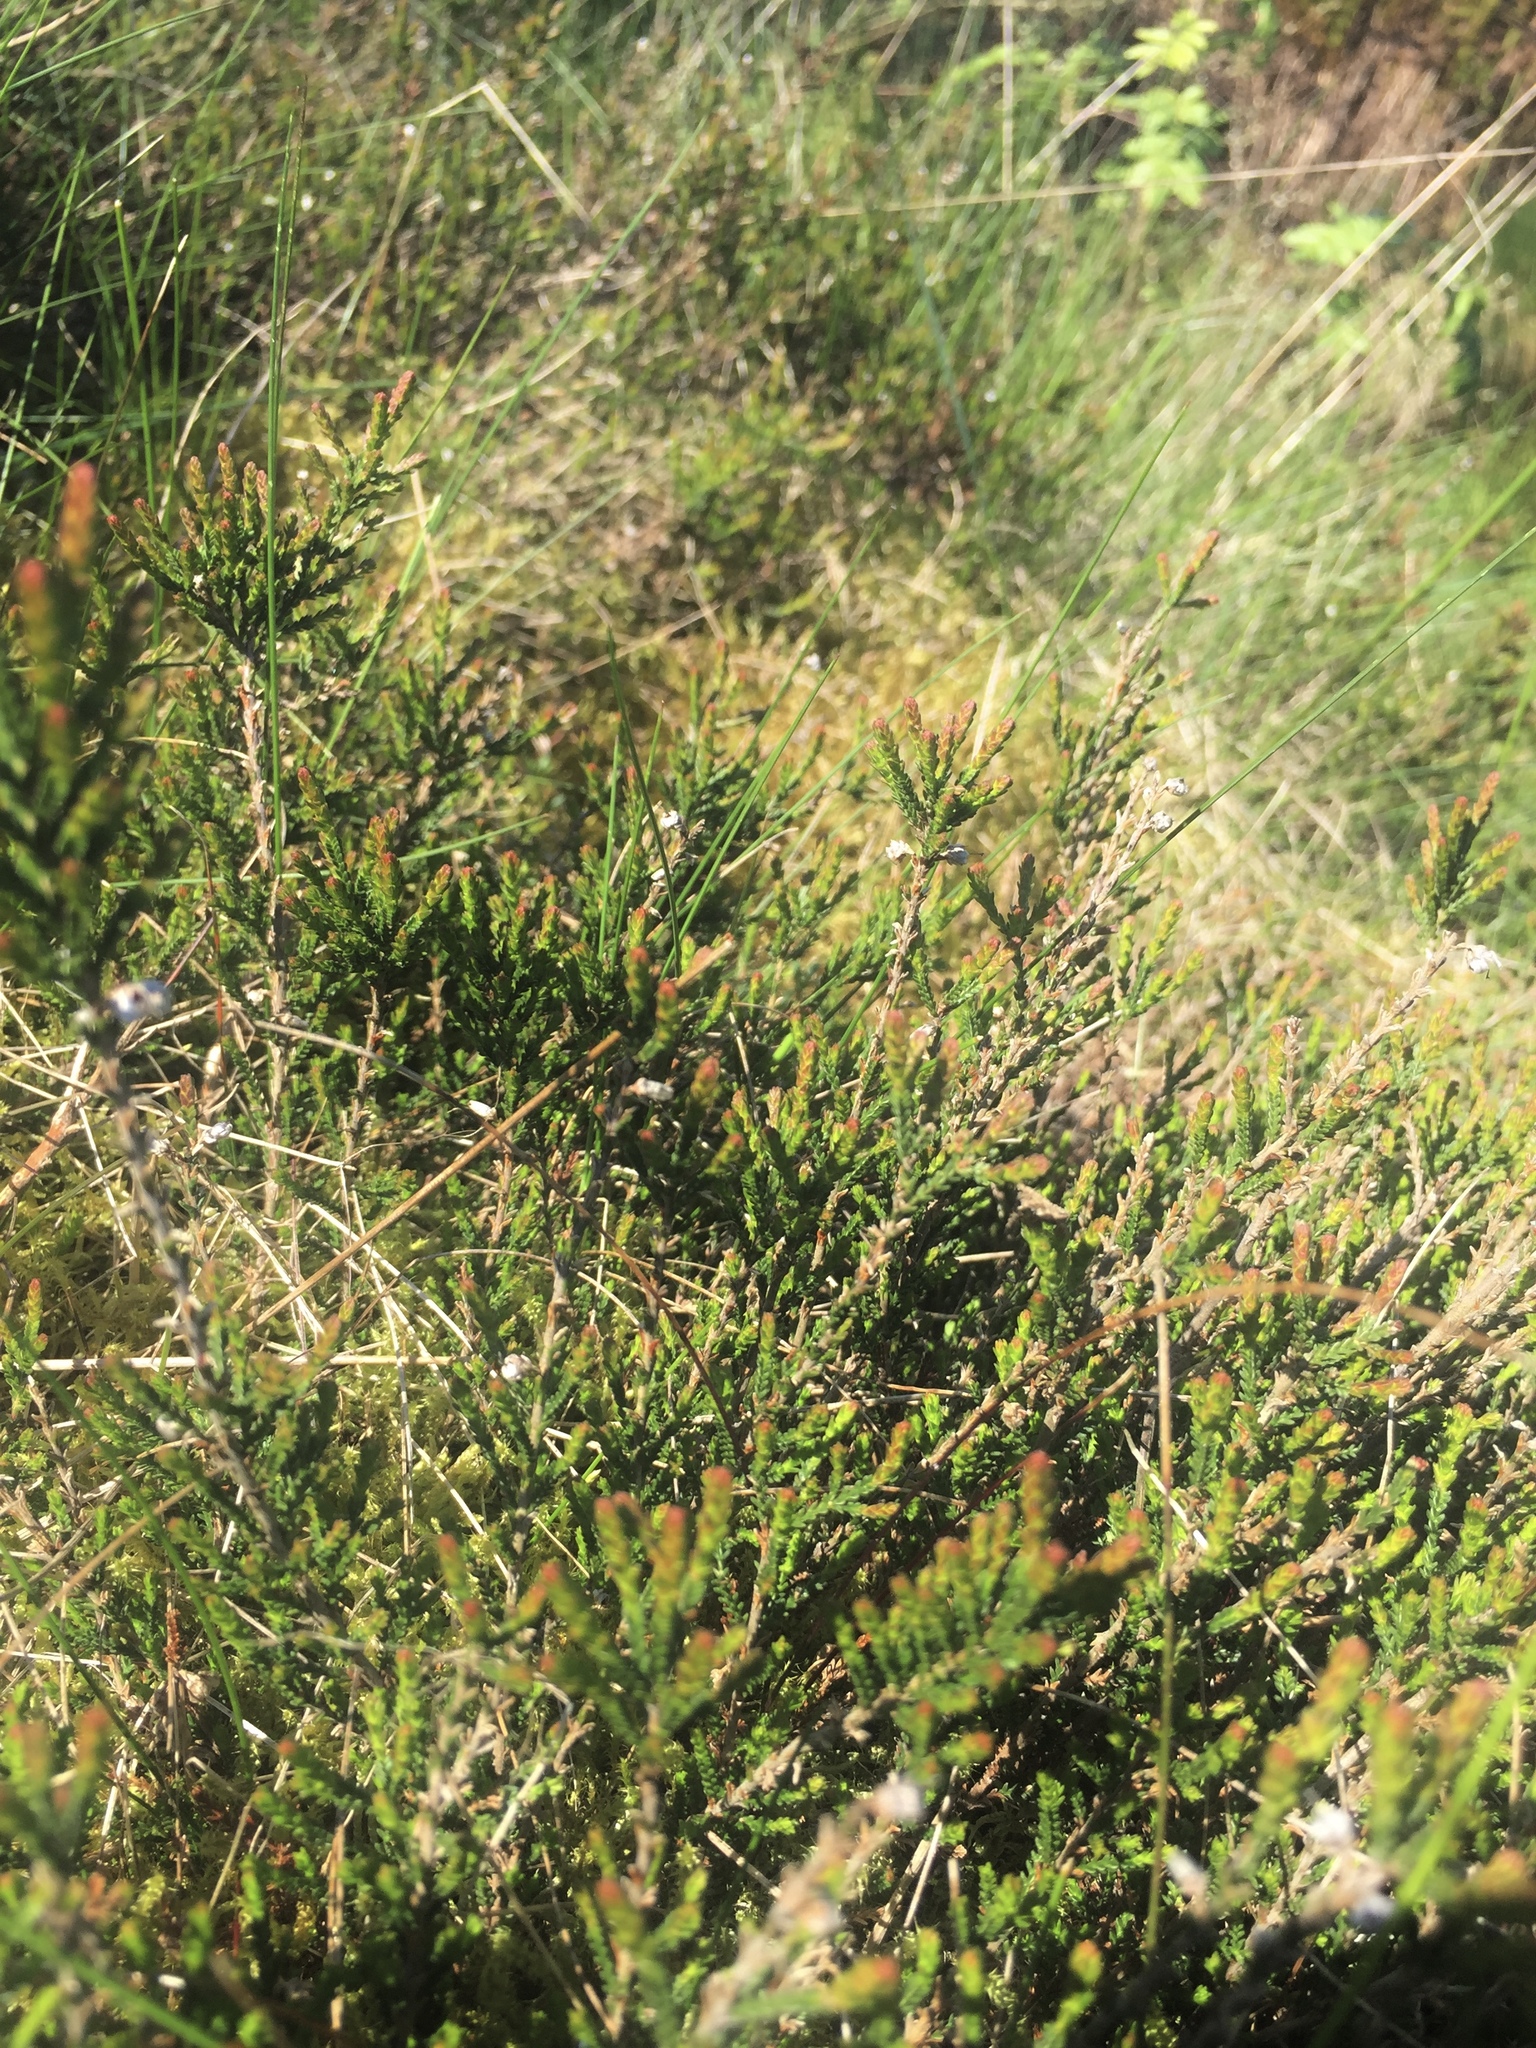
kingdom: Plantae
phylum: Tracheophyta
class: Magnoliopsida
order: Ericales
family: Ericaceae
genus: Calluna
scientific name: Calluna vulgaris
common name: Heather
